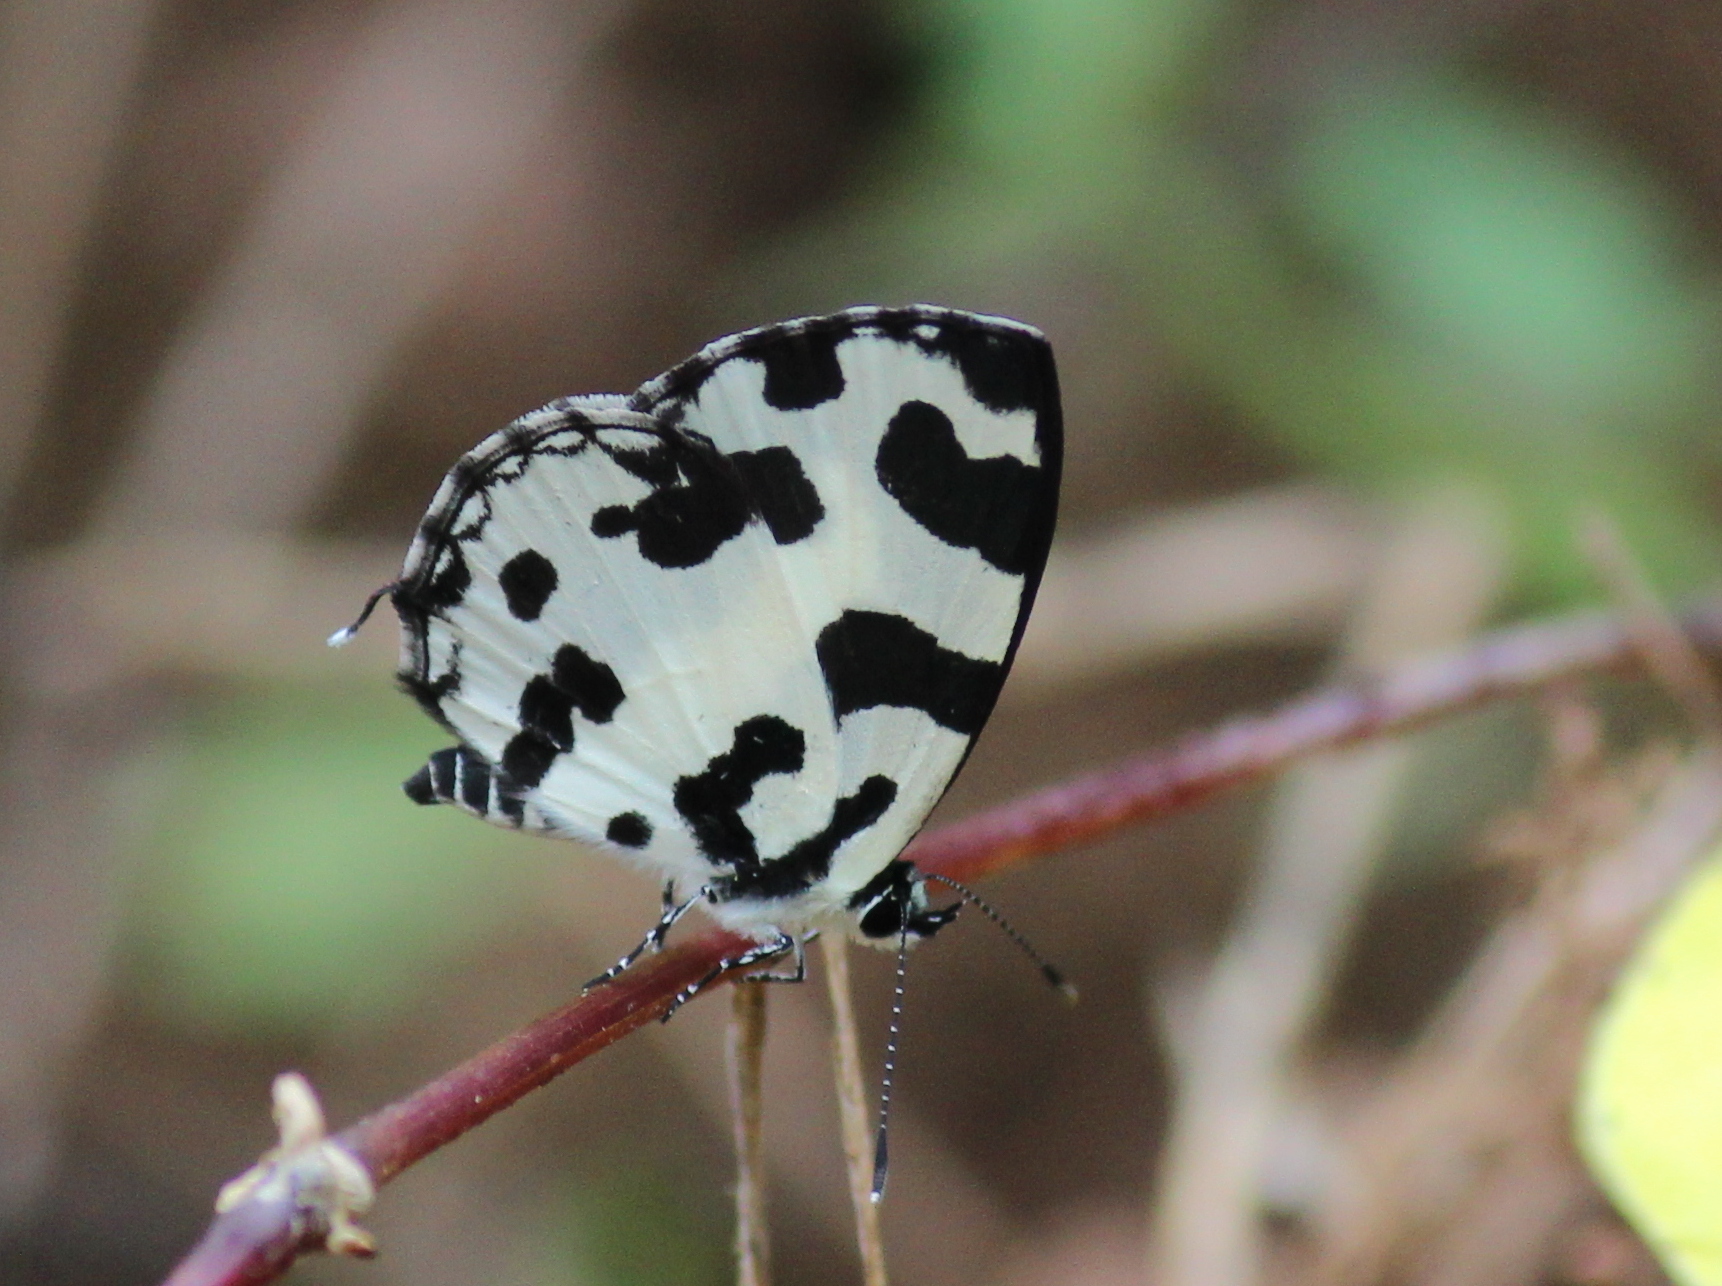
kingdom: Animalia
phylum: Arthropoda
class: Insecta
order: Lepidoptera
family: Lycaenidae
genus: Caleta
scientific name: Caleta decidia
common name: Angled pierrot
